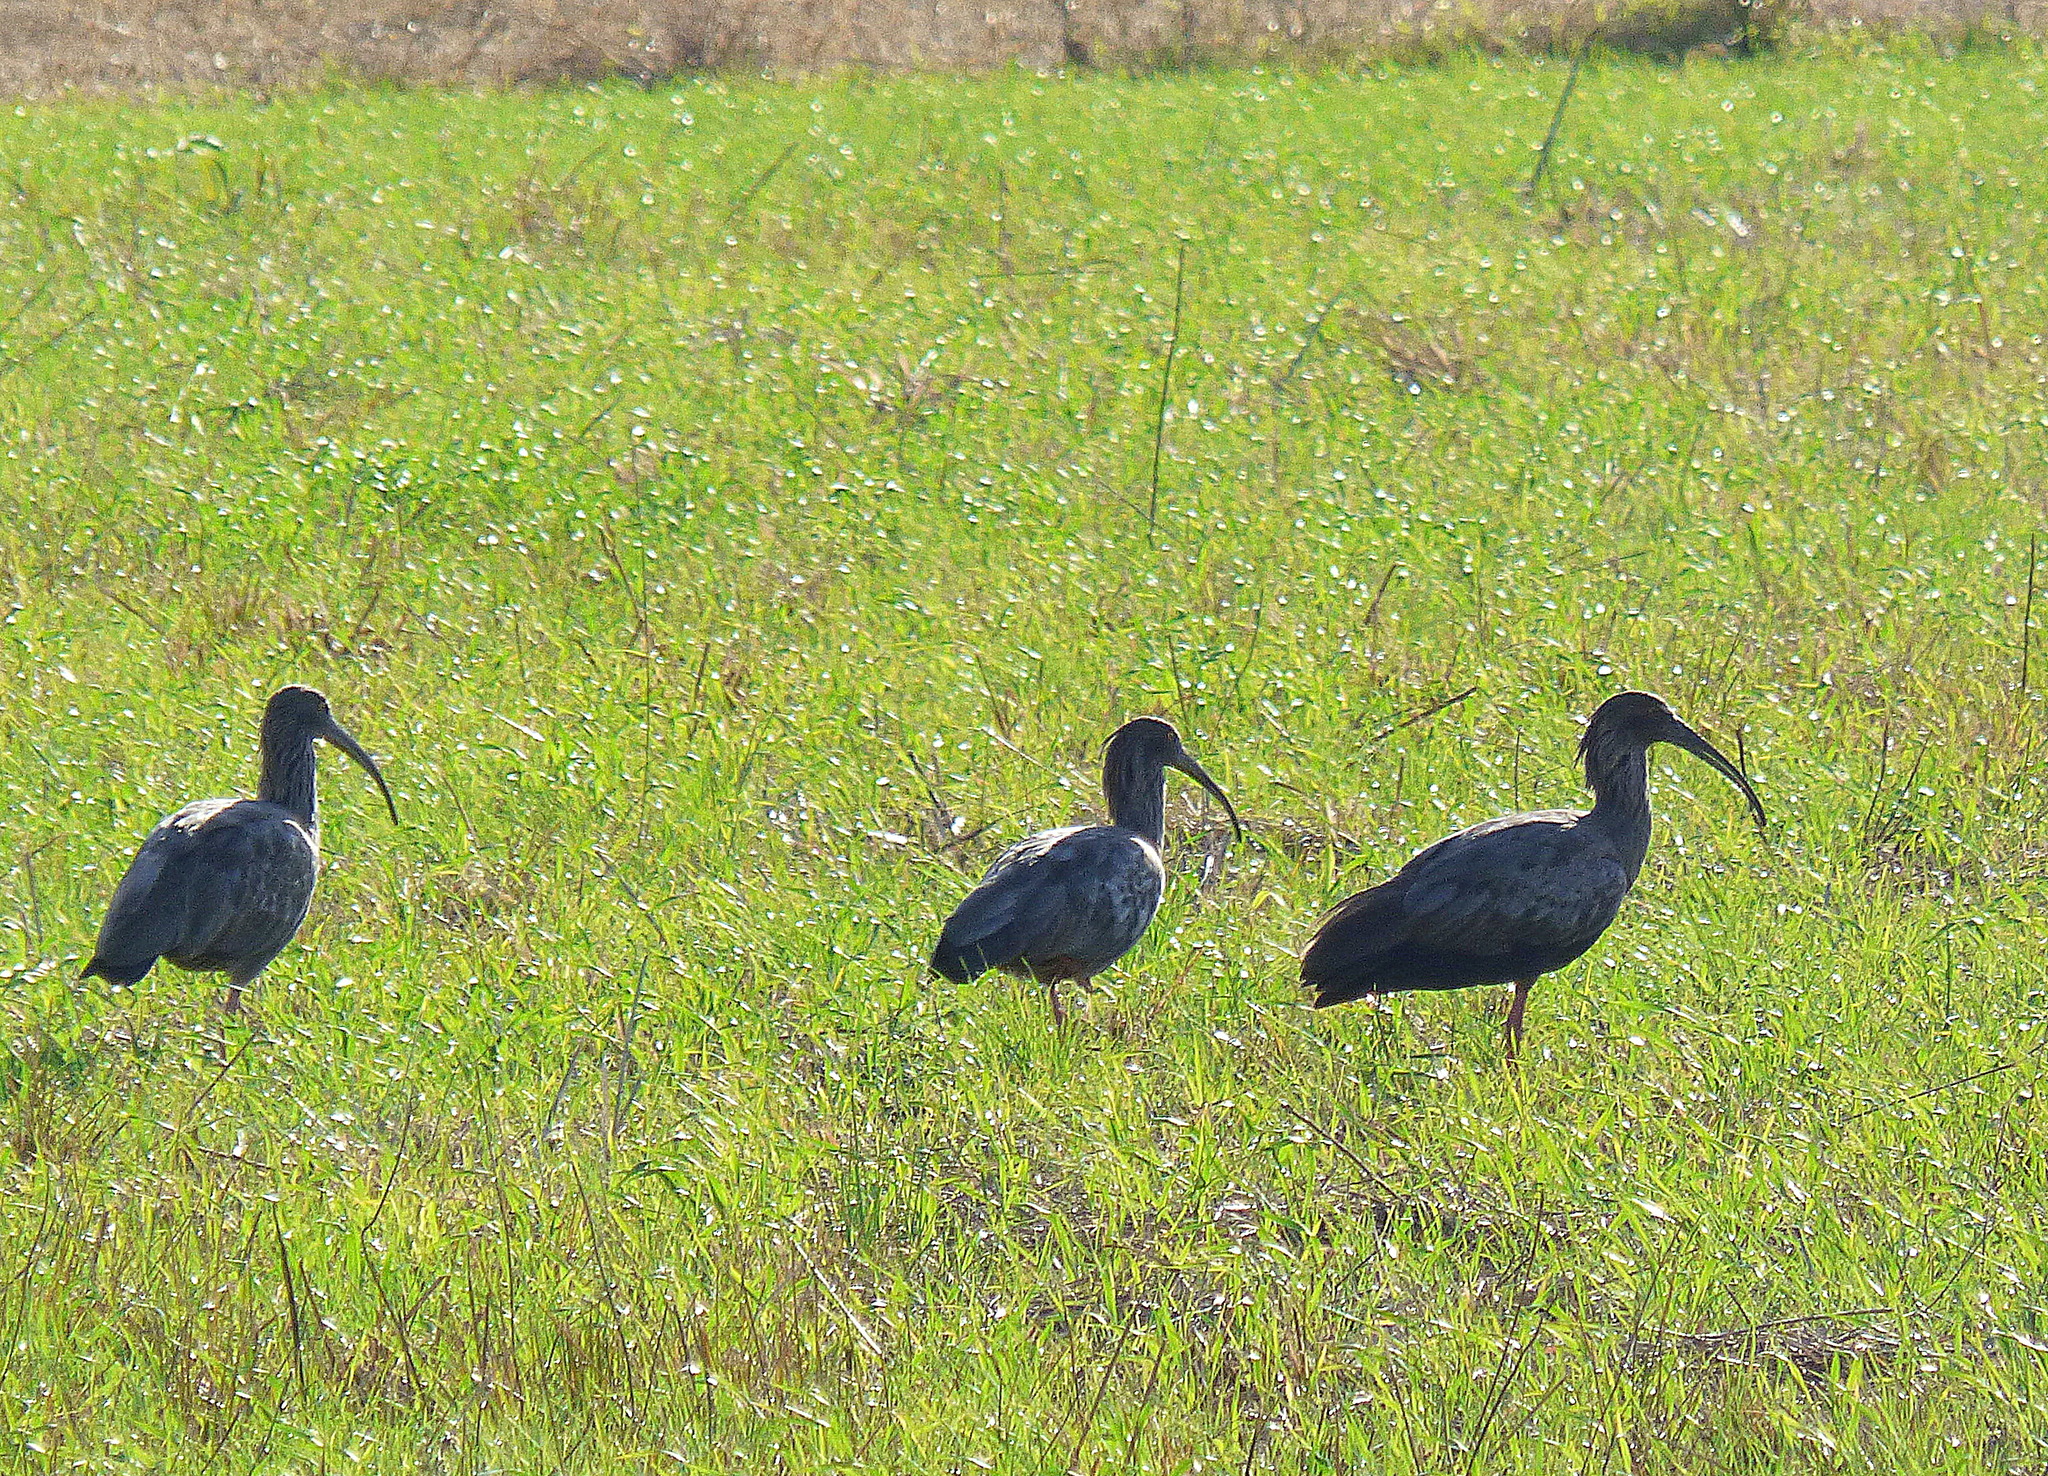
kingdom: Animalia
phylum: Chordata
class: Aves
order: Pelecaniformes
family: Threskiornithidae
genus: Theristicus
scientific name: Theristicus caerulescens
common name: Plumbeous ibis
